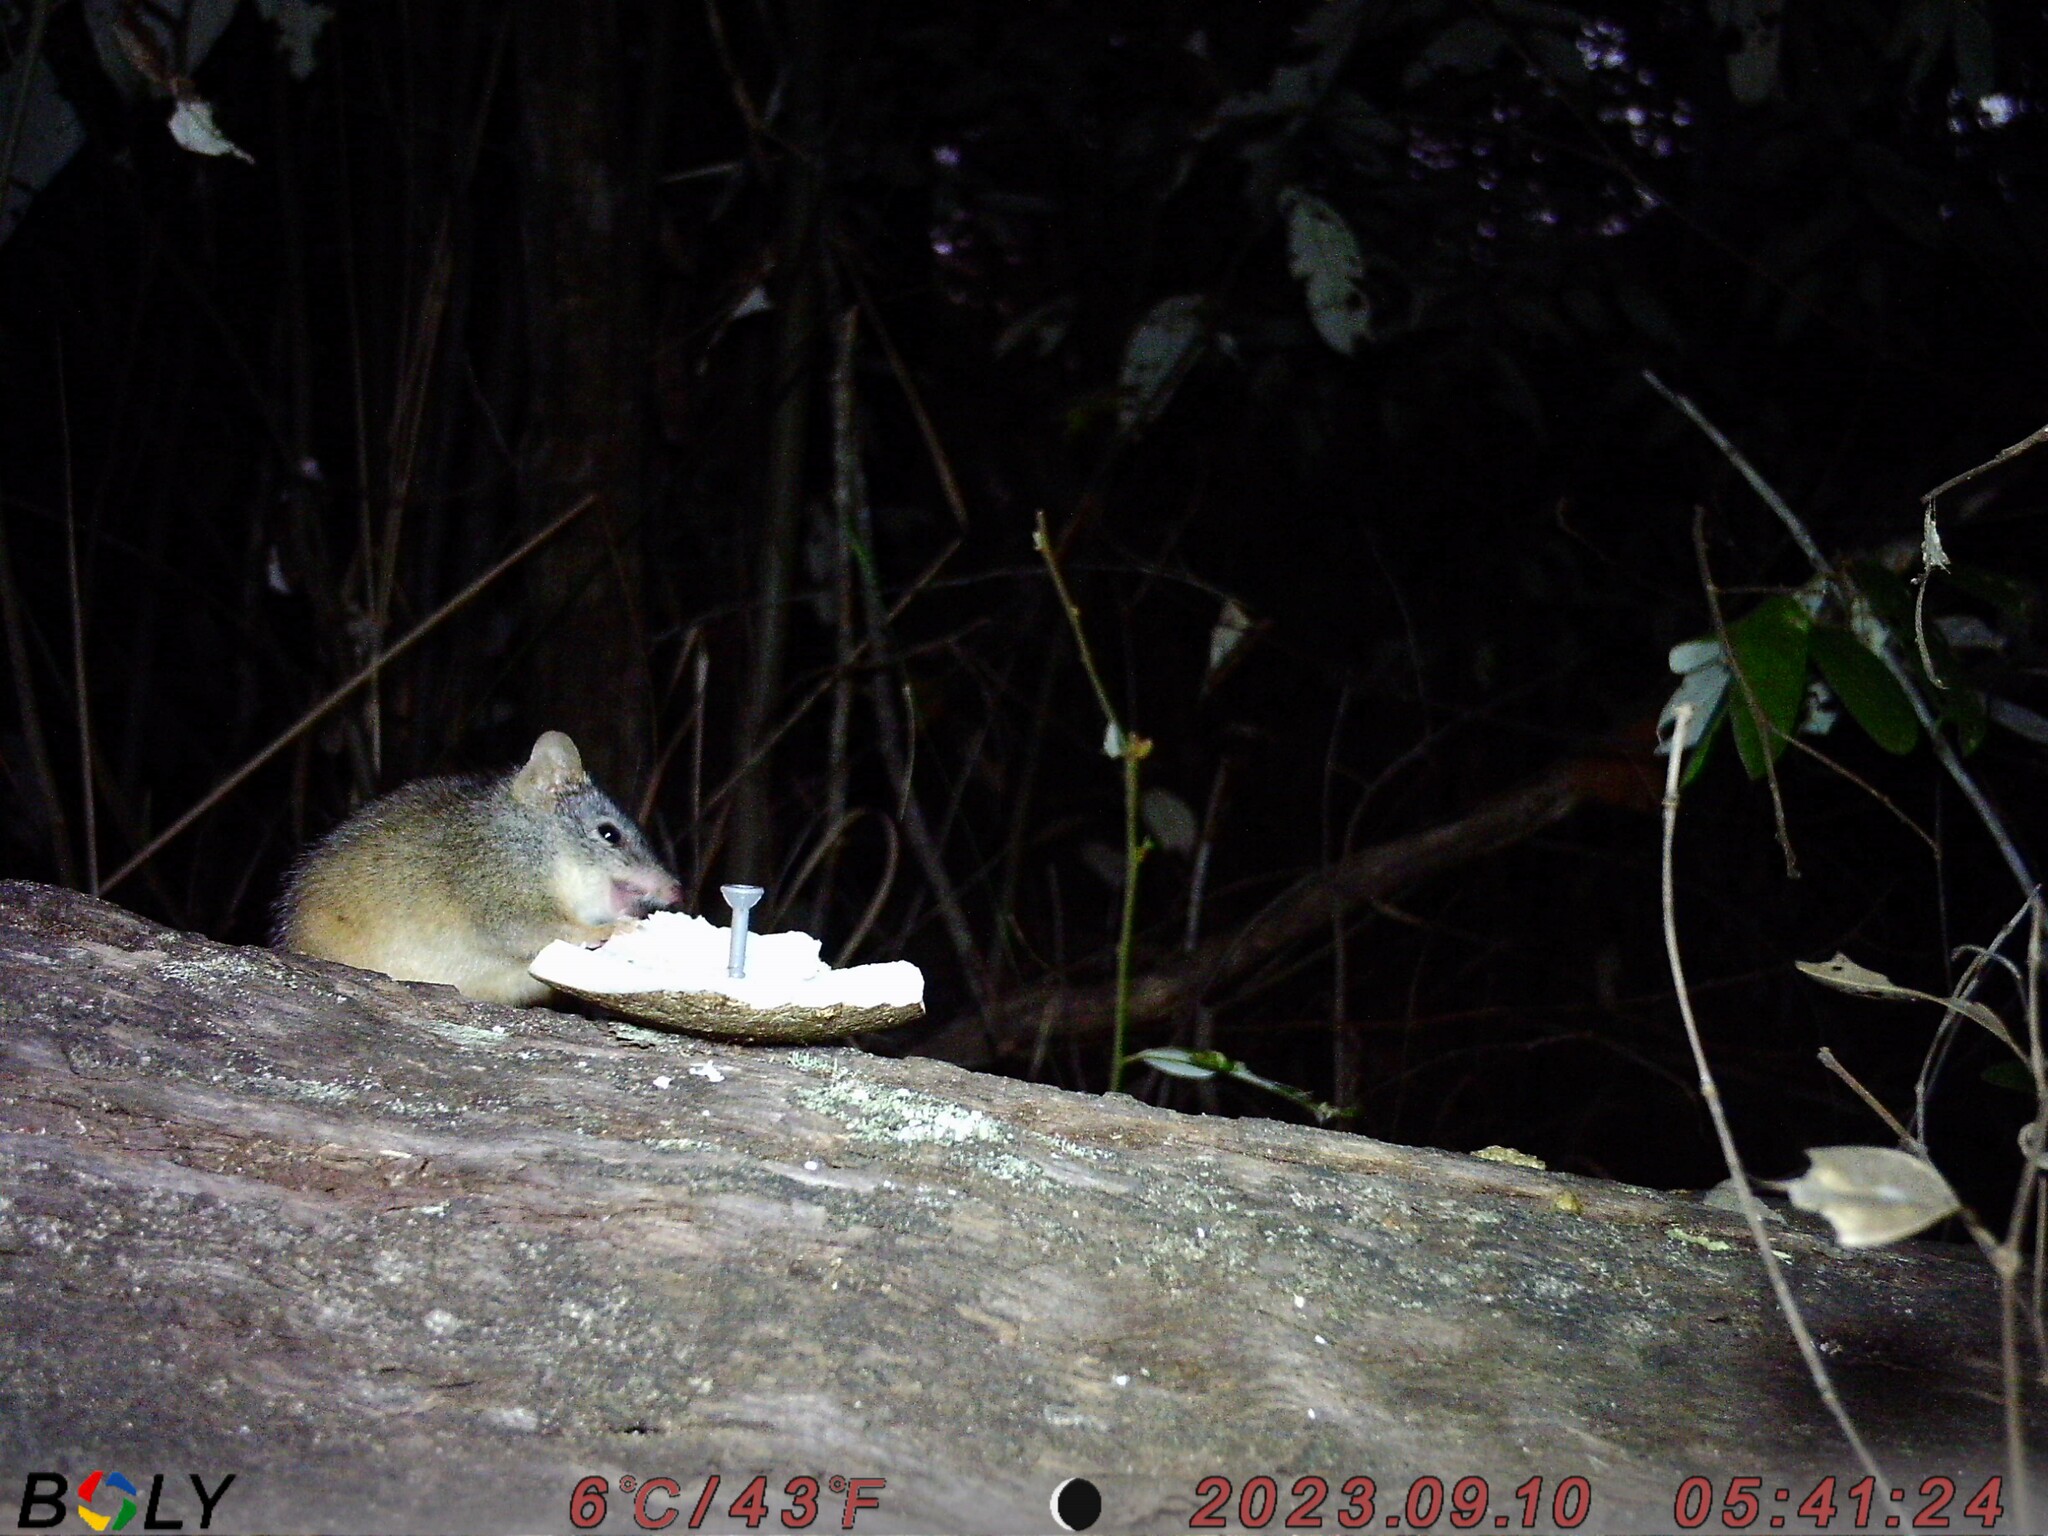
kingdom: Animalia
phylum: Chordata
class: Mammalia
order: Dasyuromorphia
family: Dasyuridae
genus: Antechinus
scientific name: Antechinus flavipes
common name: Yellow-footed antechinus
